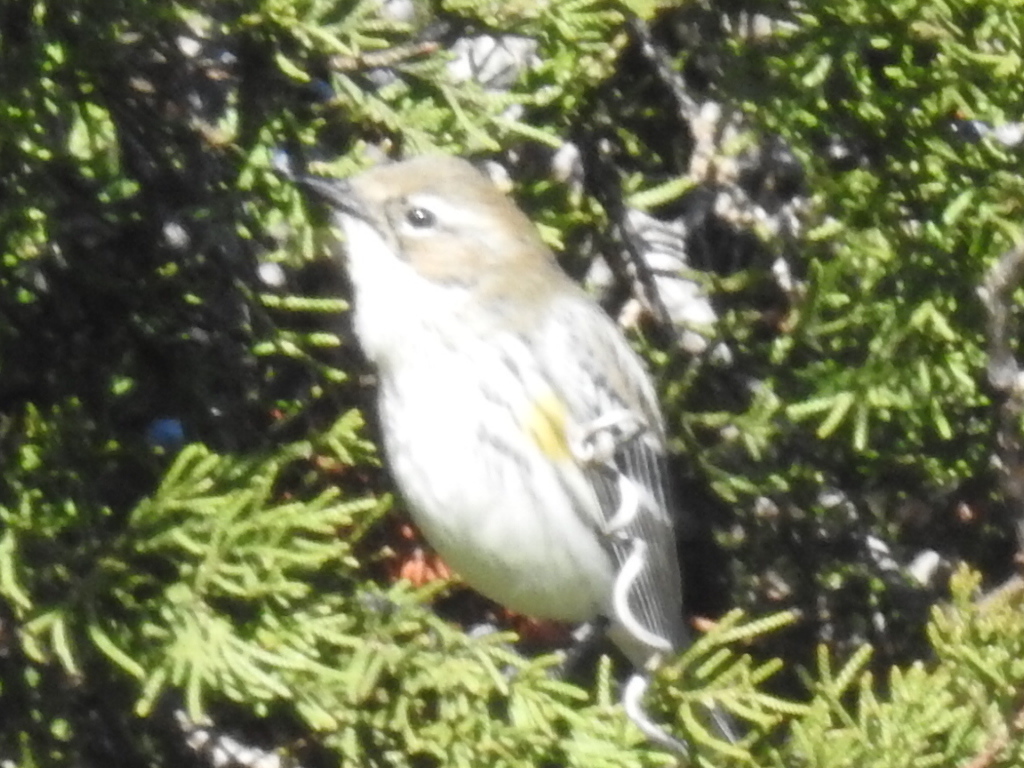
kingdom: Animalia
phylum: Chordata
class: Aves
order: Passeriformes
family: Parulidae
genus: Setophaga
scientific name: Setophaga coronata
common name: Myrtle warbler
